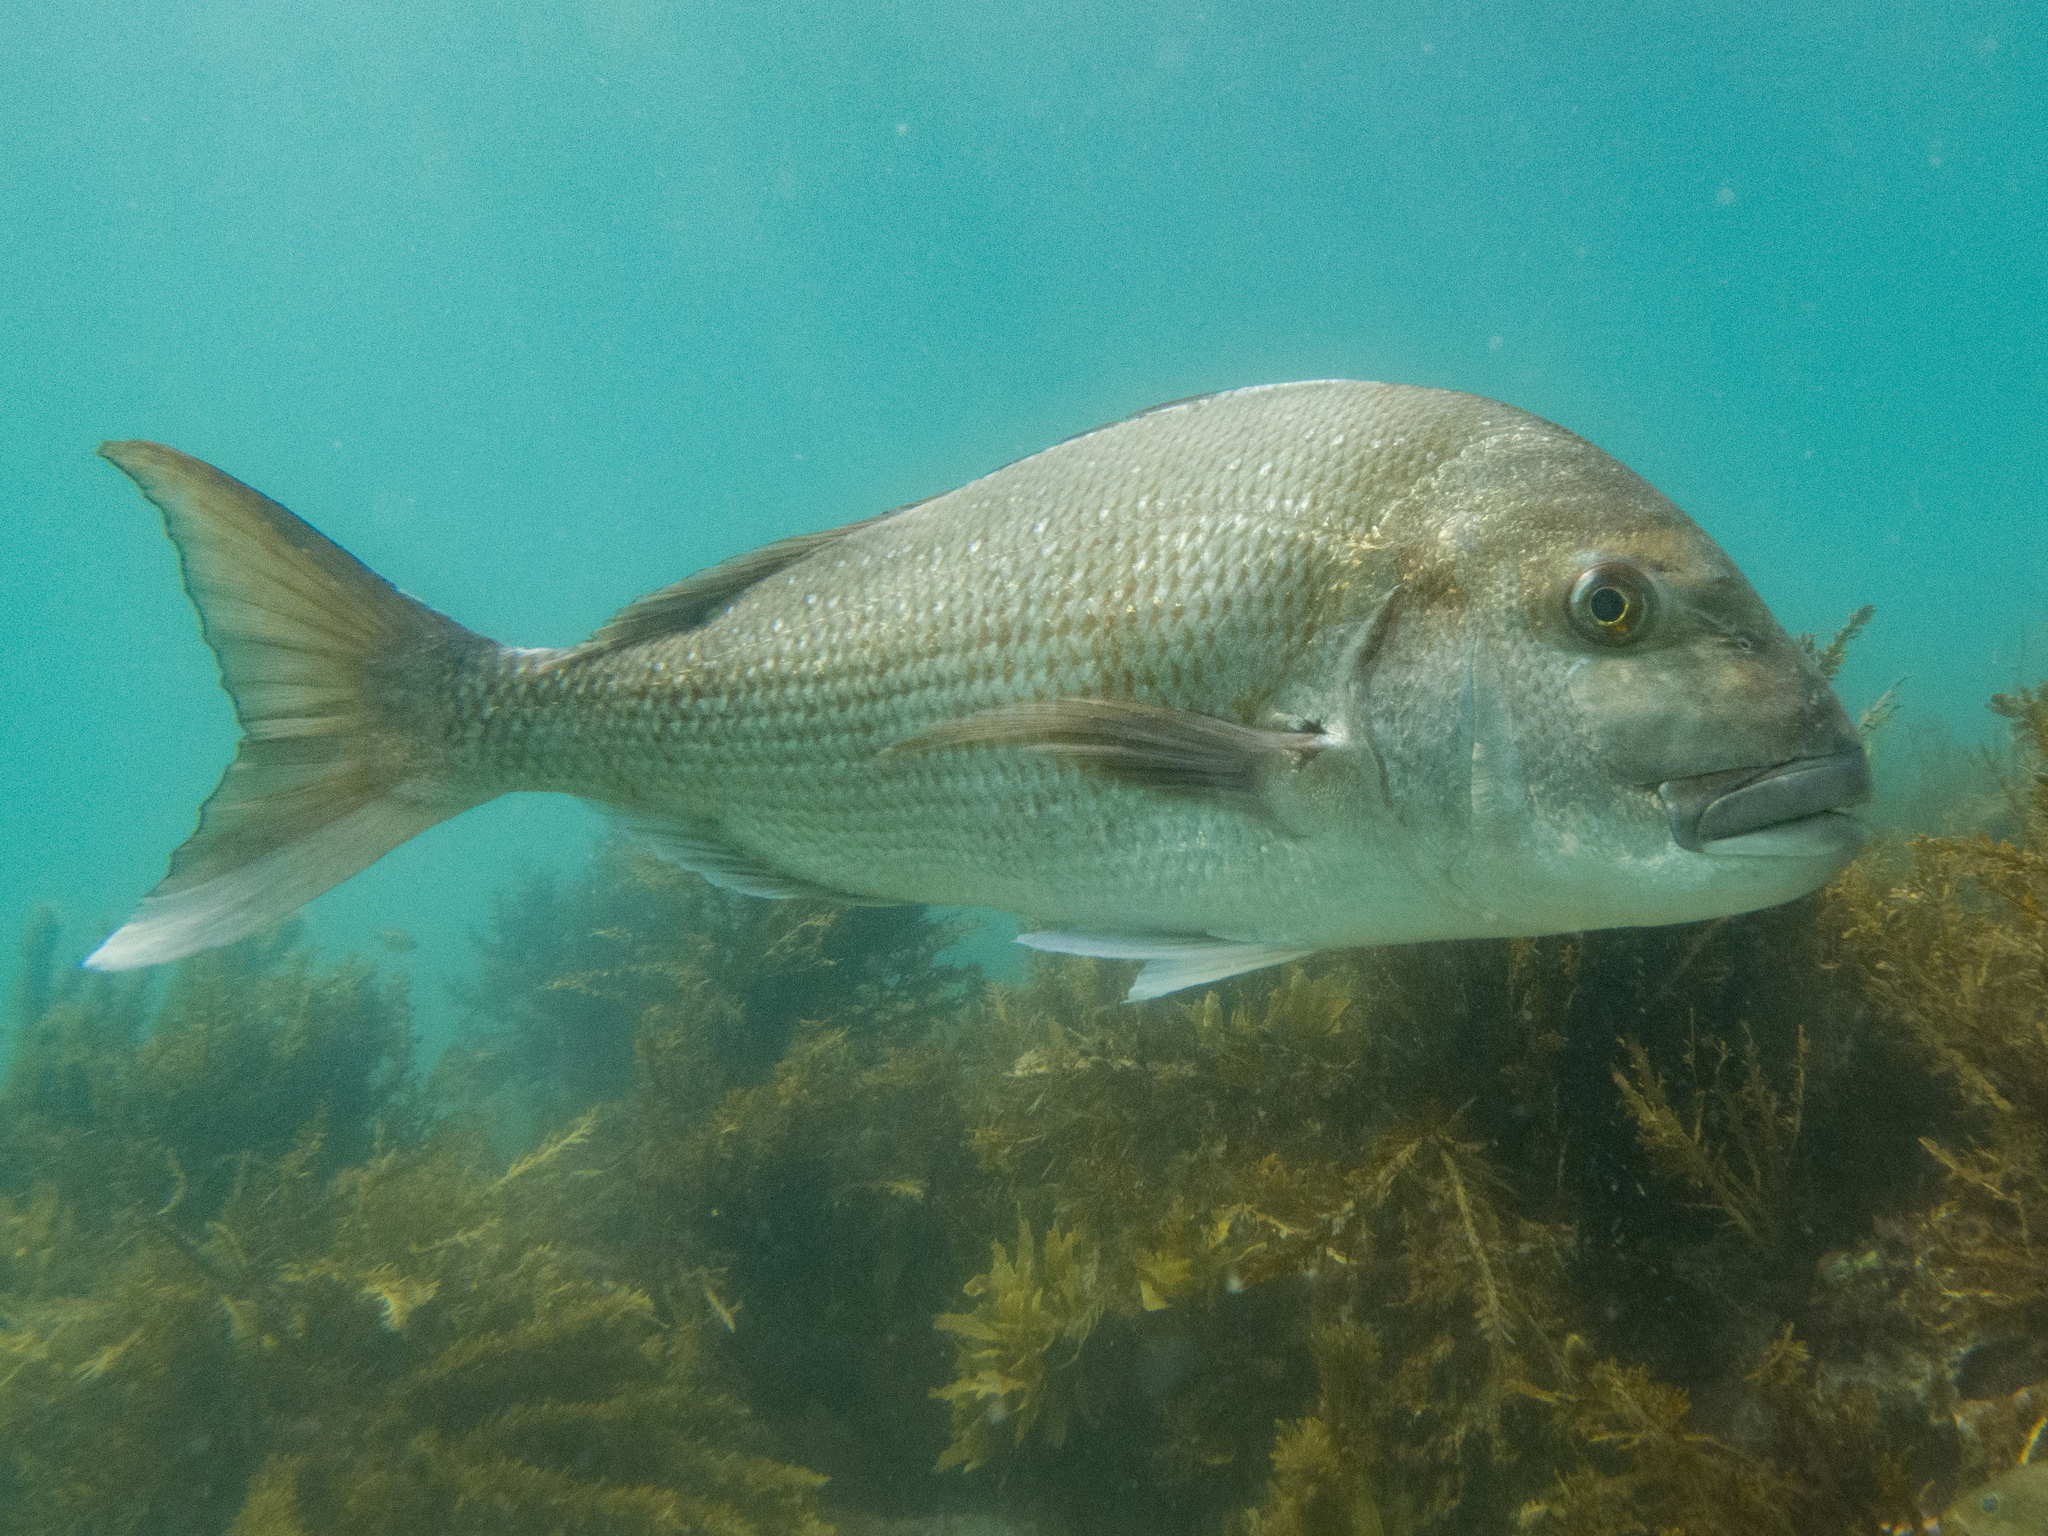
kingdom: Animalia
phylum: Chordata
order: Perciformes
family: Sparidae
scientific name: Sparidae
